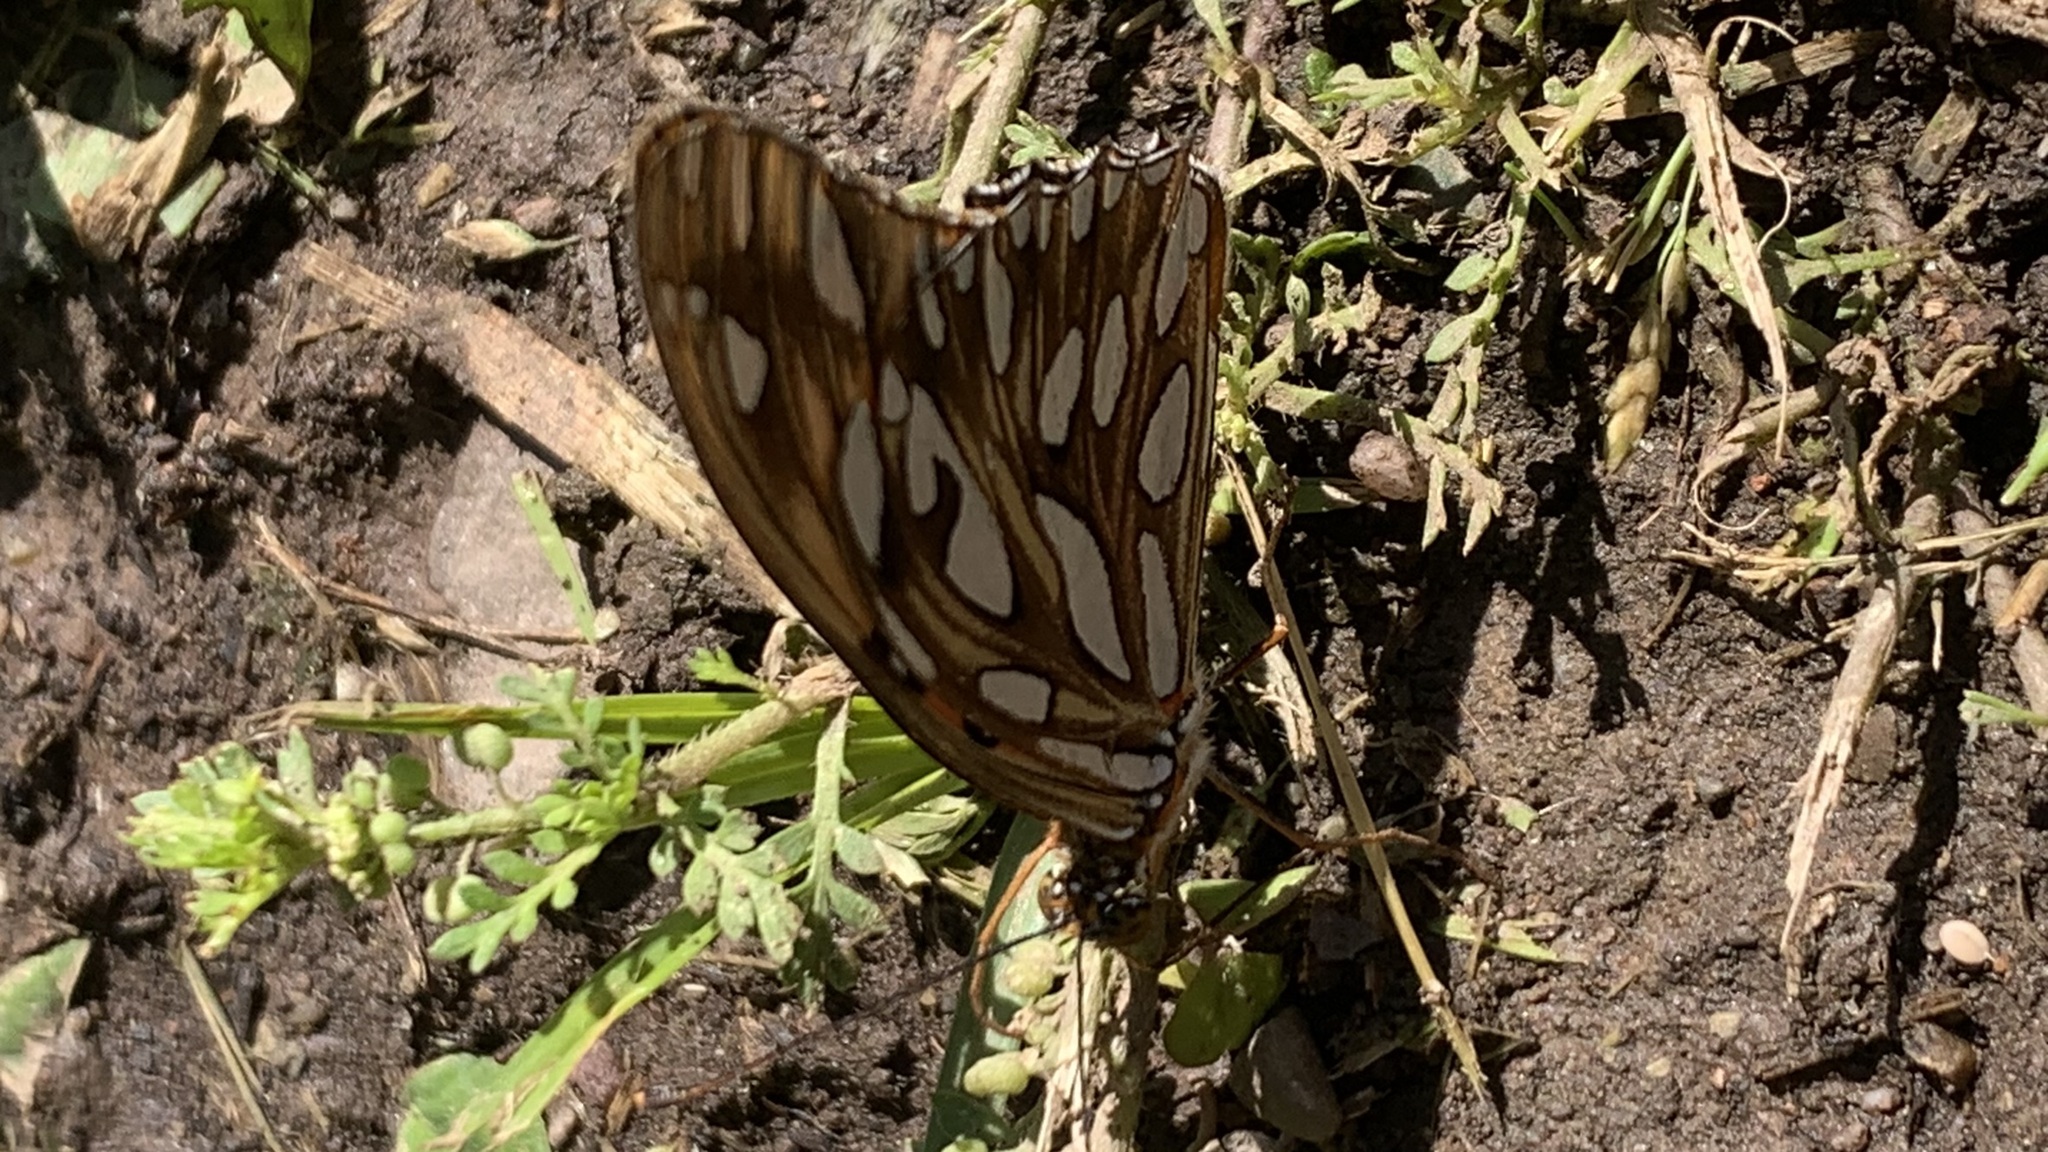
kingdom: Animalia
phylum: Arthropoda
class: Insecta
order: Lepidoptera
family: Nymphalidae
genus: Dione
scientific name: Dione vanillae
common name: Gulf fritillary
